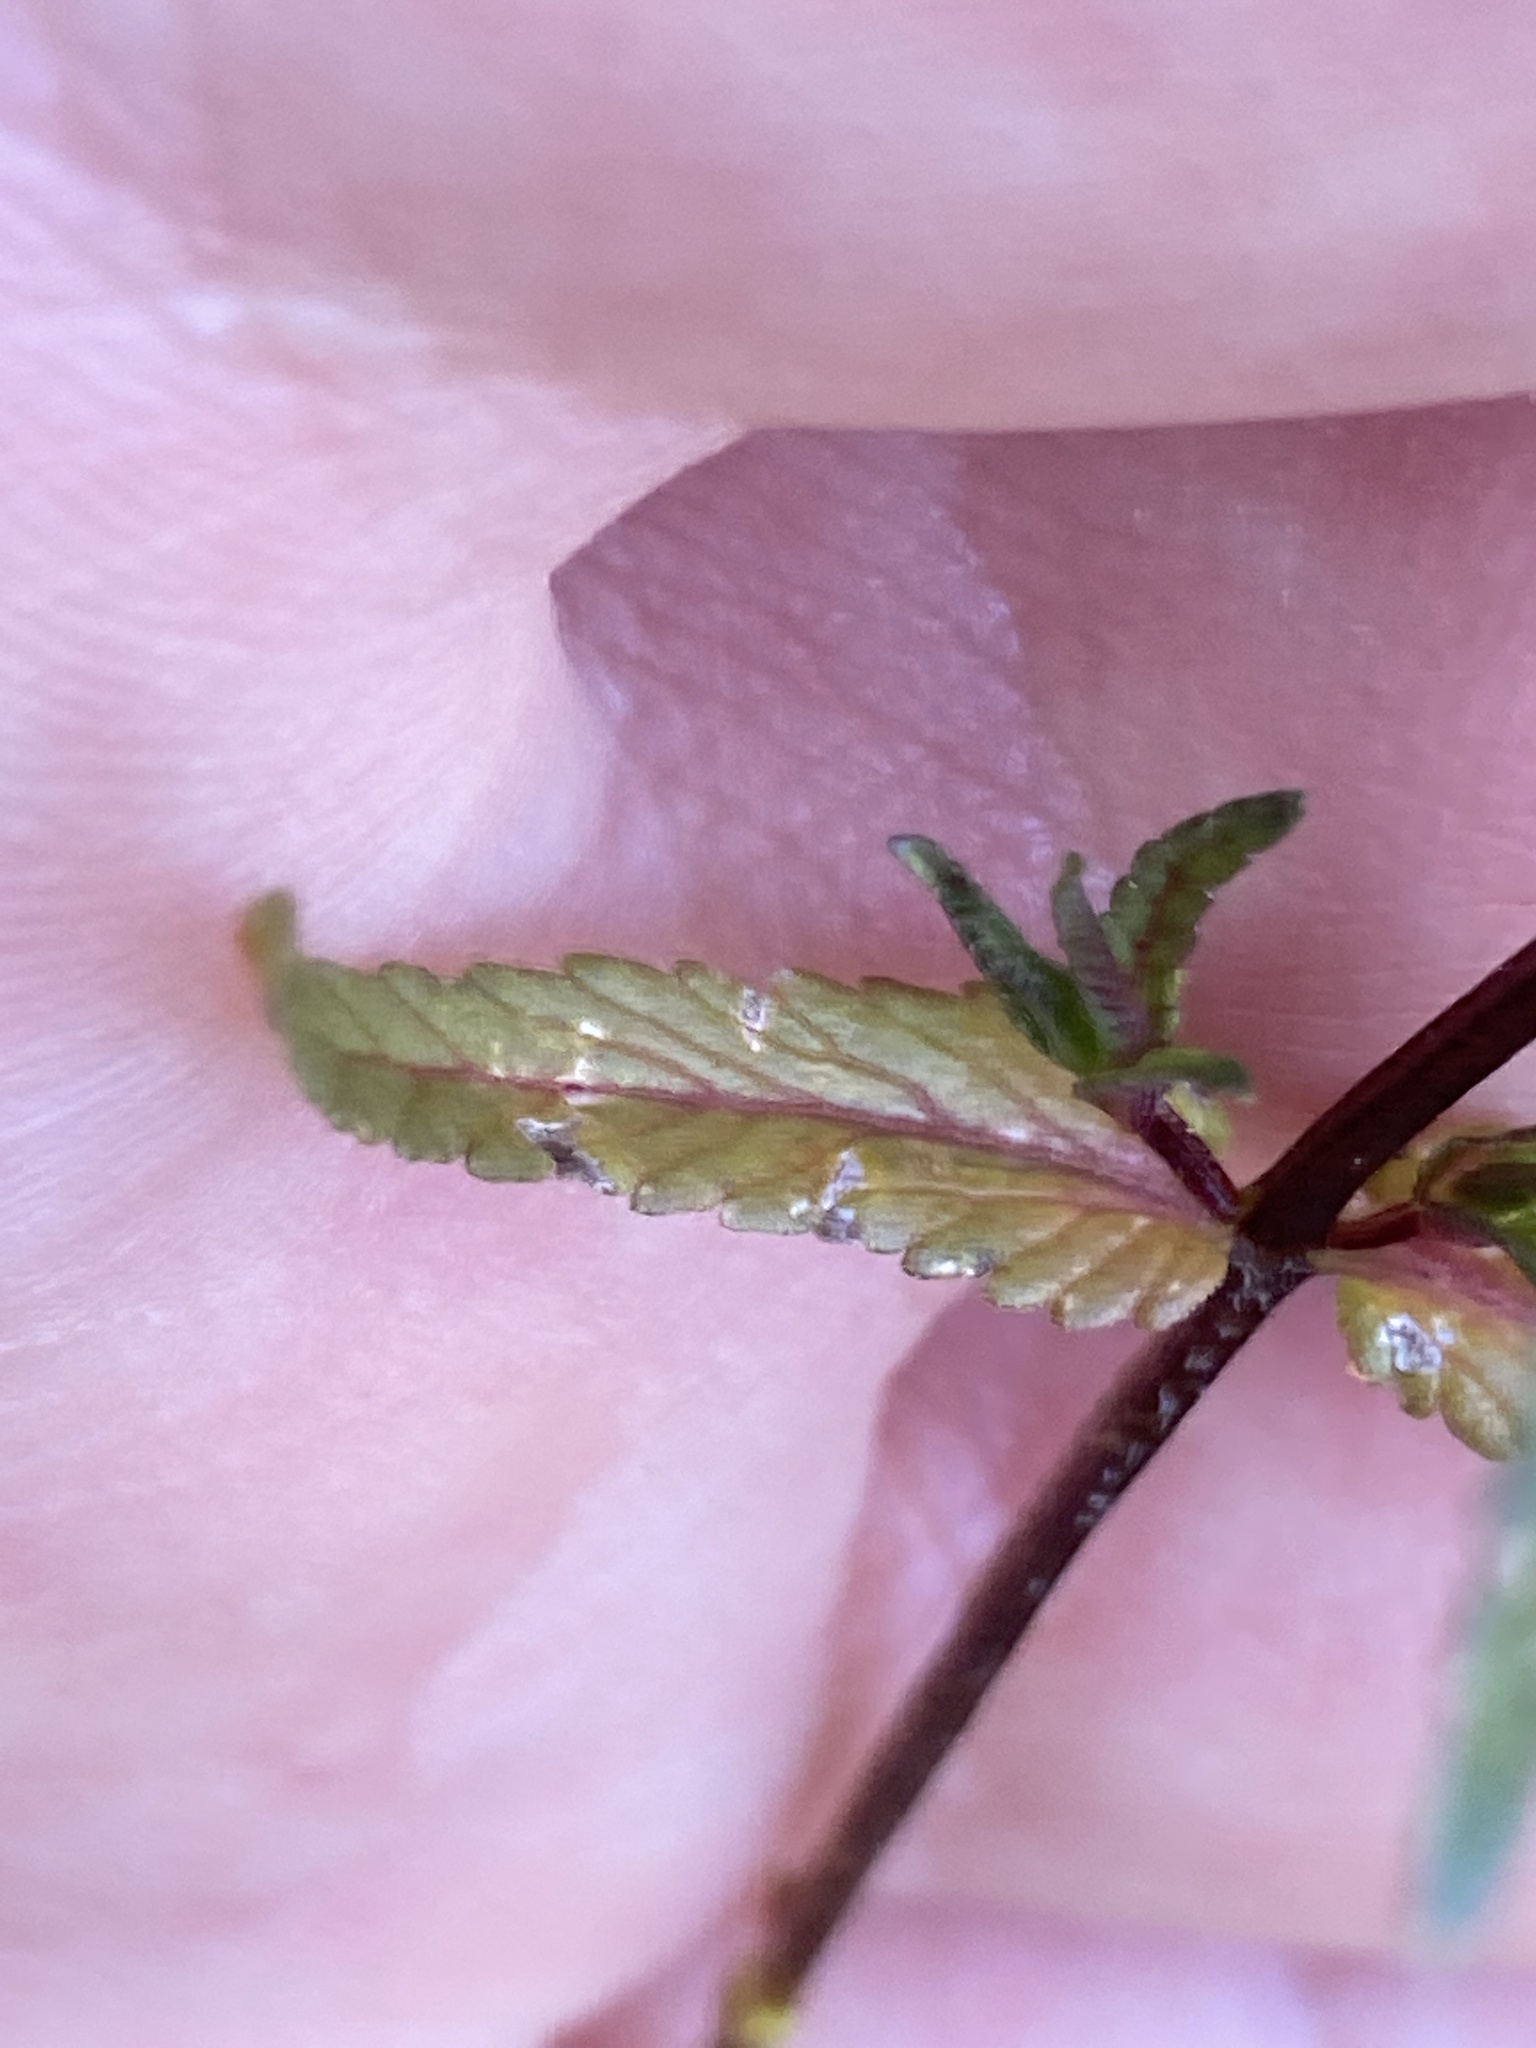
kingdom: Plantae
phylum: Tracheophyta
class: Magnoliopsida
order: Lamiales
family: Orobanchaceae
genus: Rhinanthus
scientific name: Rhinanthus serotinus
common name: Late-flowering yellow rattle
